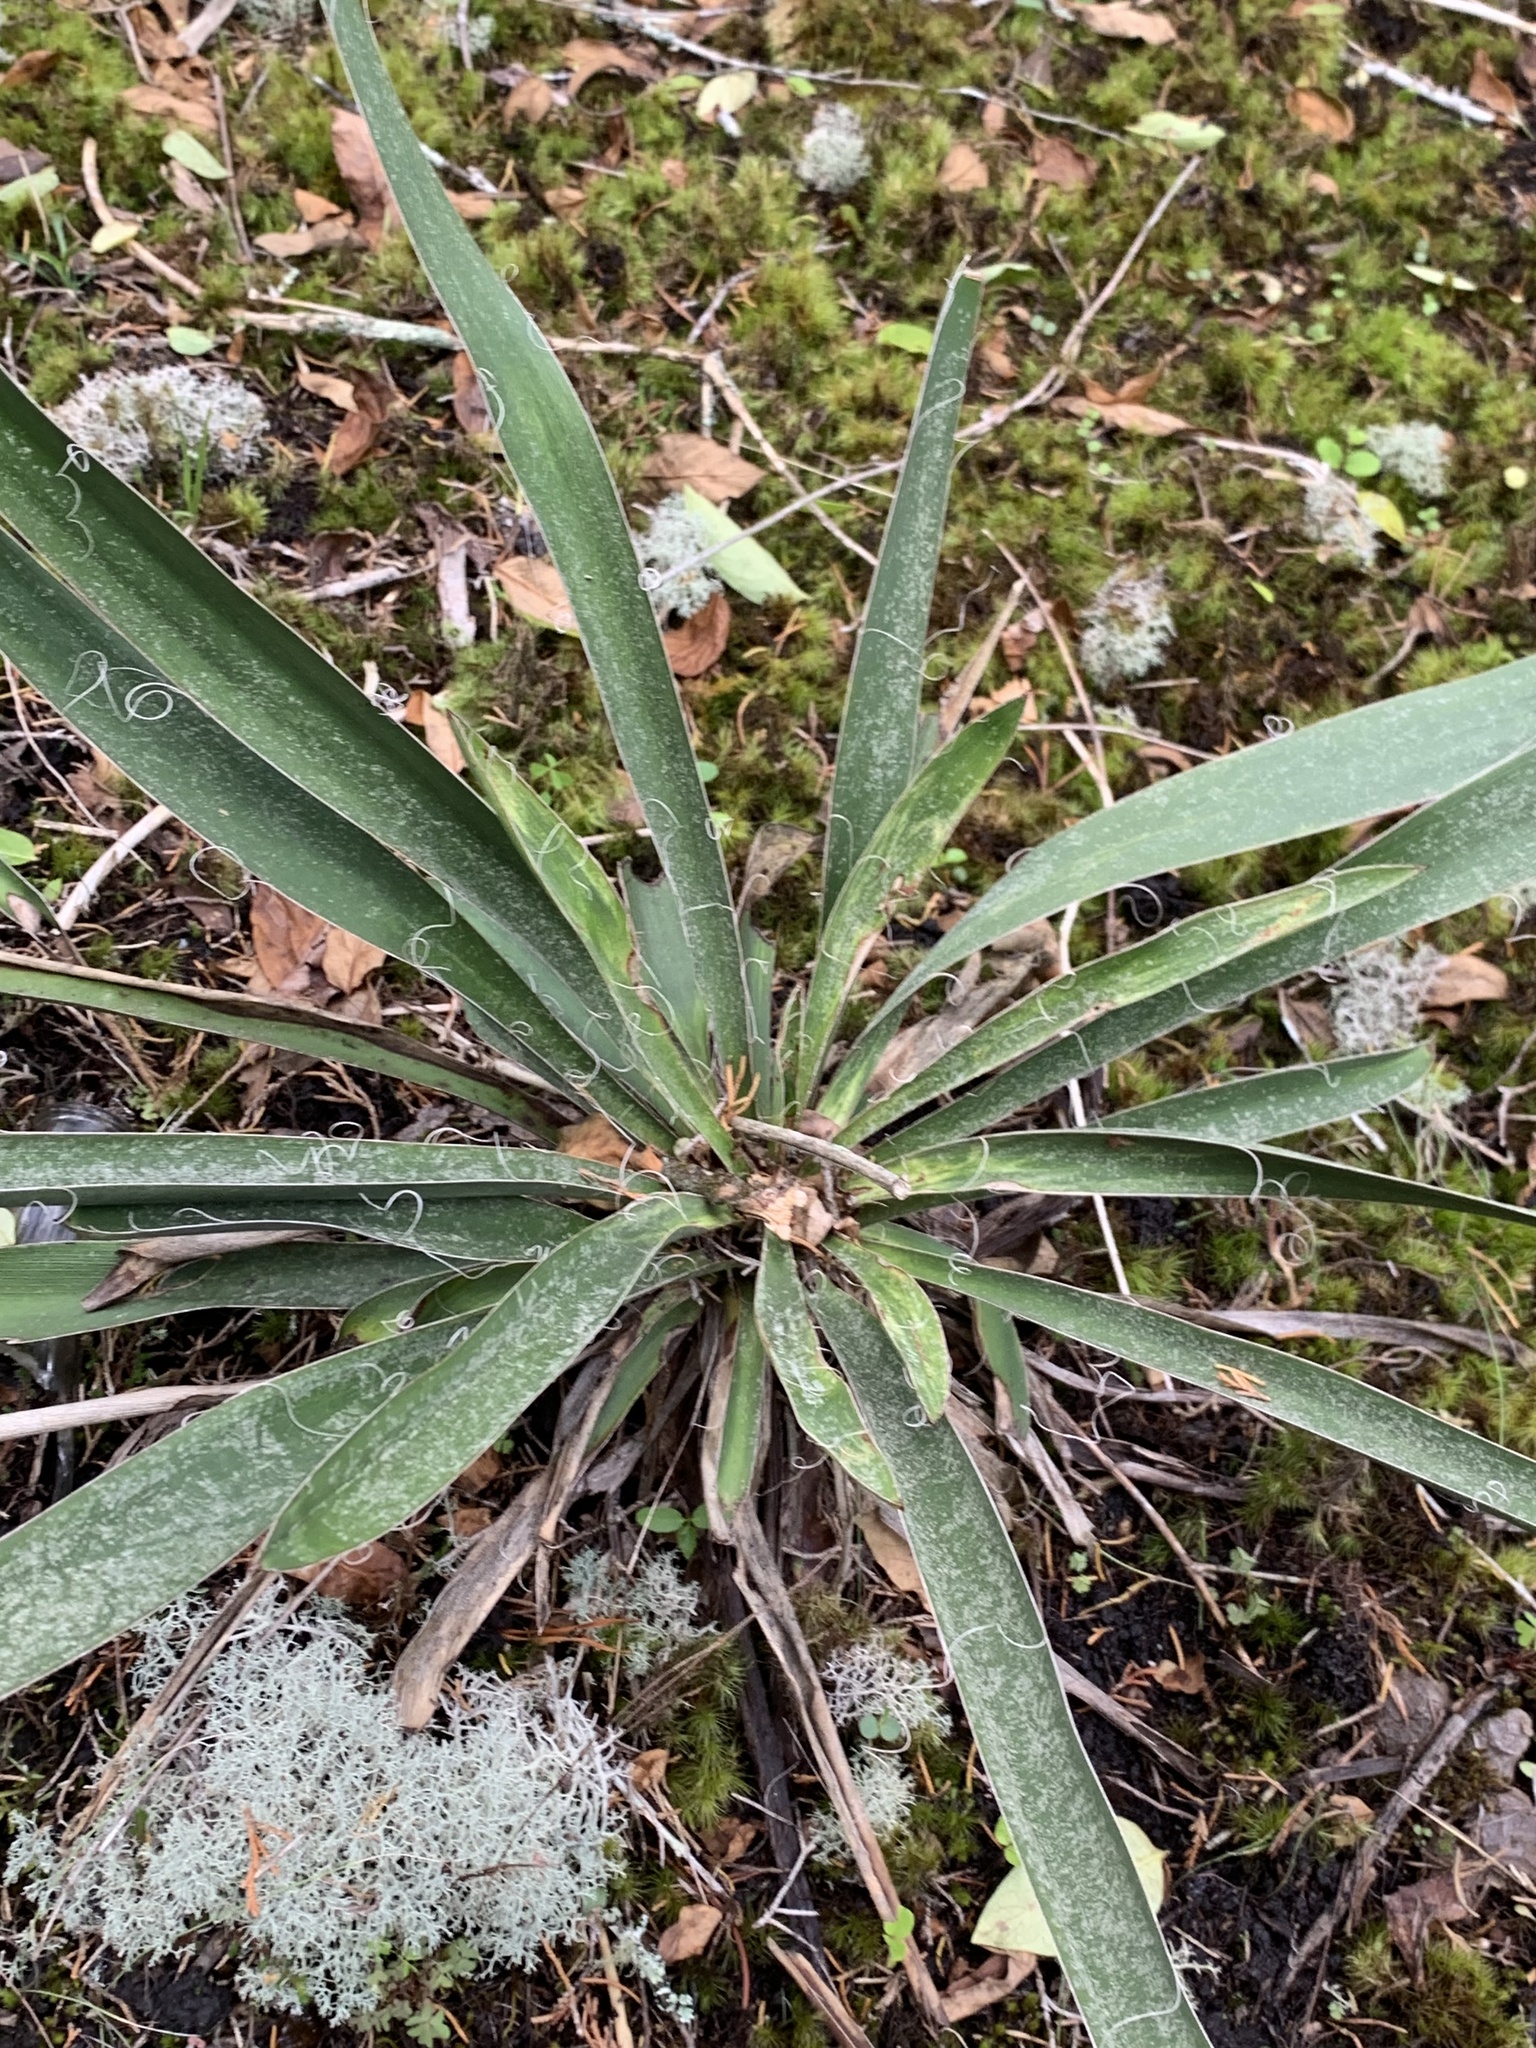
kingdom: Plantae
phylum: Tracheophyta
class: Liliopsida
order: Asparagales
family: Asparagaceae
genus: Yucca
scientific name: Yucca filamentosa
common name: Adam's-needle
